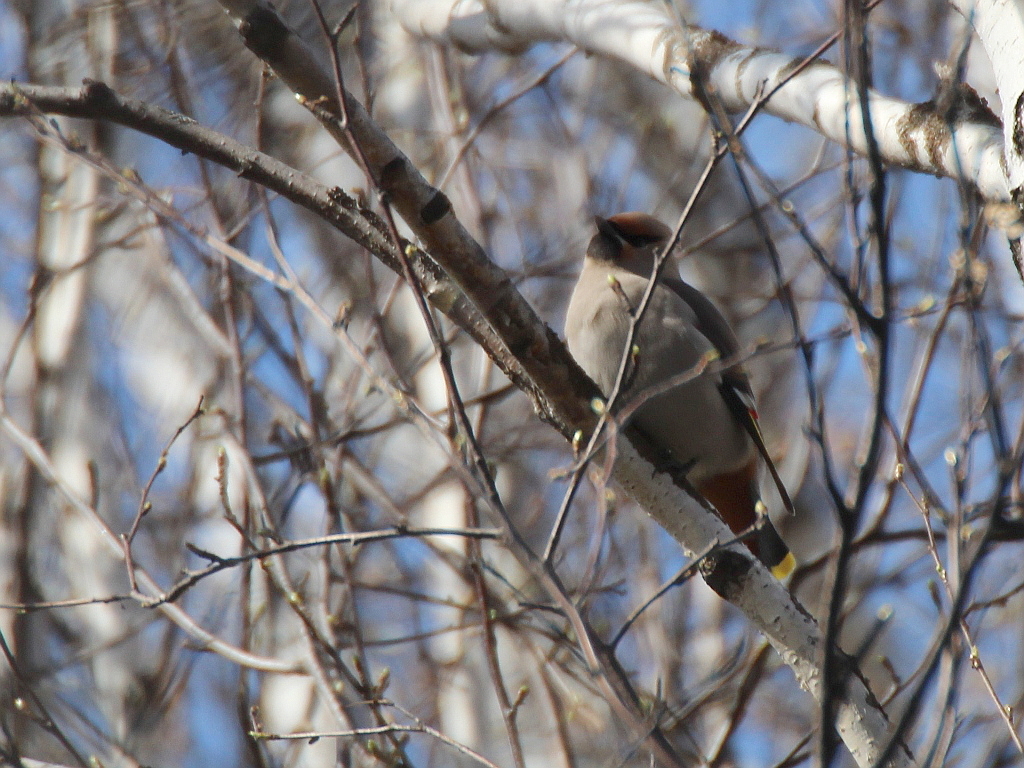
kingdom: Animalia
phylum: Chordata
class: Aves
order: Passeriformes
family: Bombycillidae
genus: Bombycilla
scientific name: Bombycilla garrulus
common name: Bohemian waxwing
